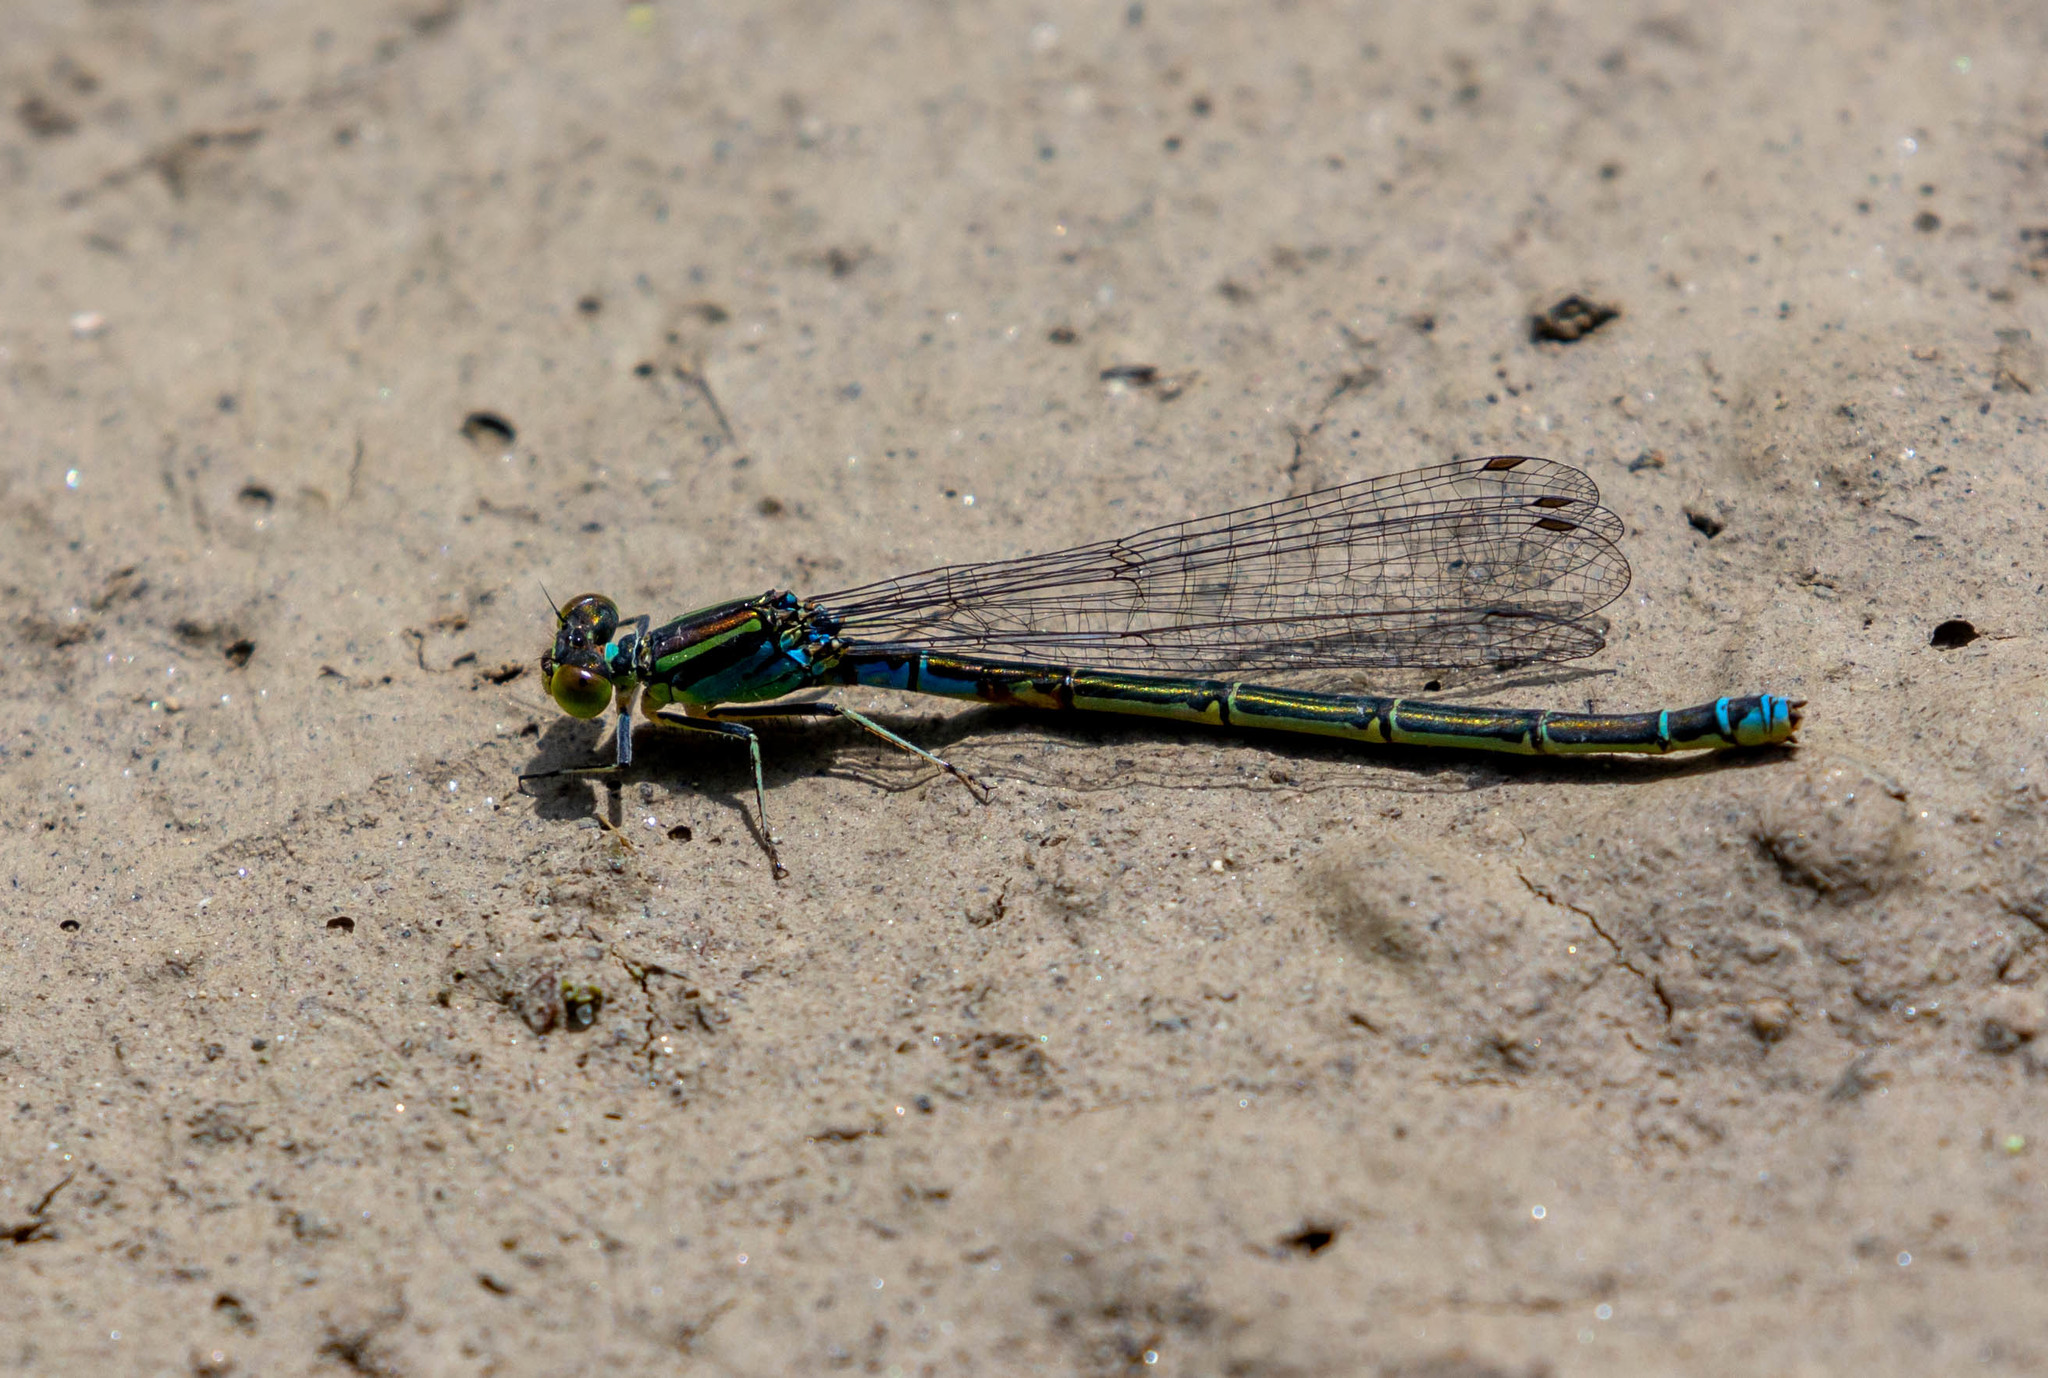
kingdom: Animalia
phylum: Arthropoda
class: Insecta
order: Odonata
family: Coenagrionidae
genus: Erythromma
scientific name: Erythromma viridulum
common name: Small red-eyed damselfly
